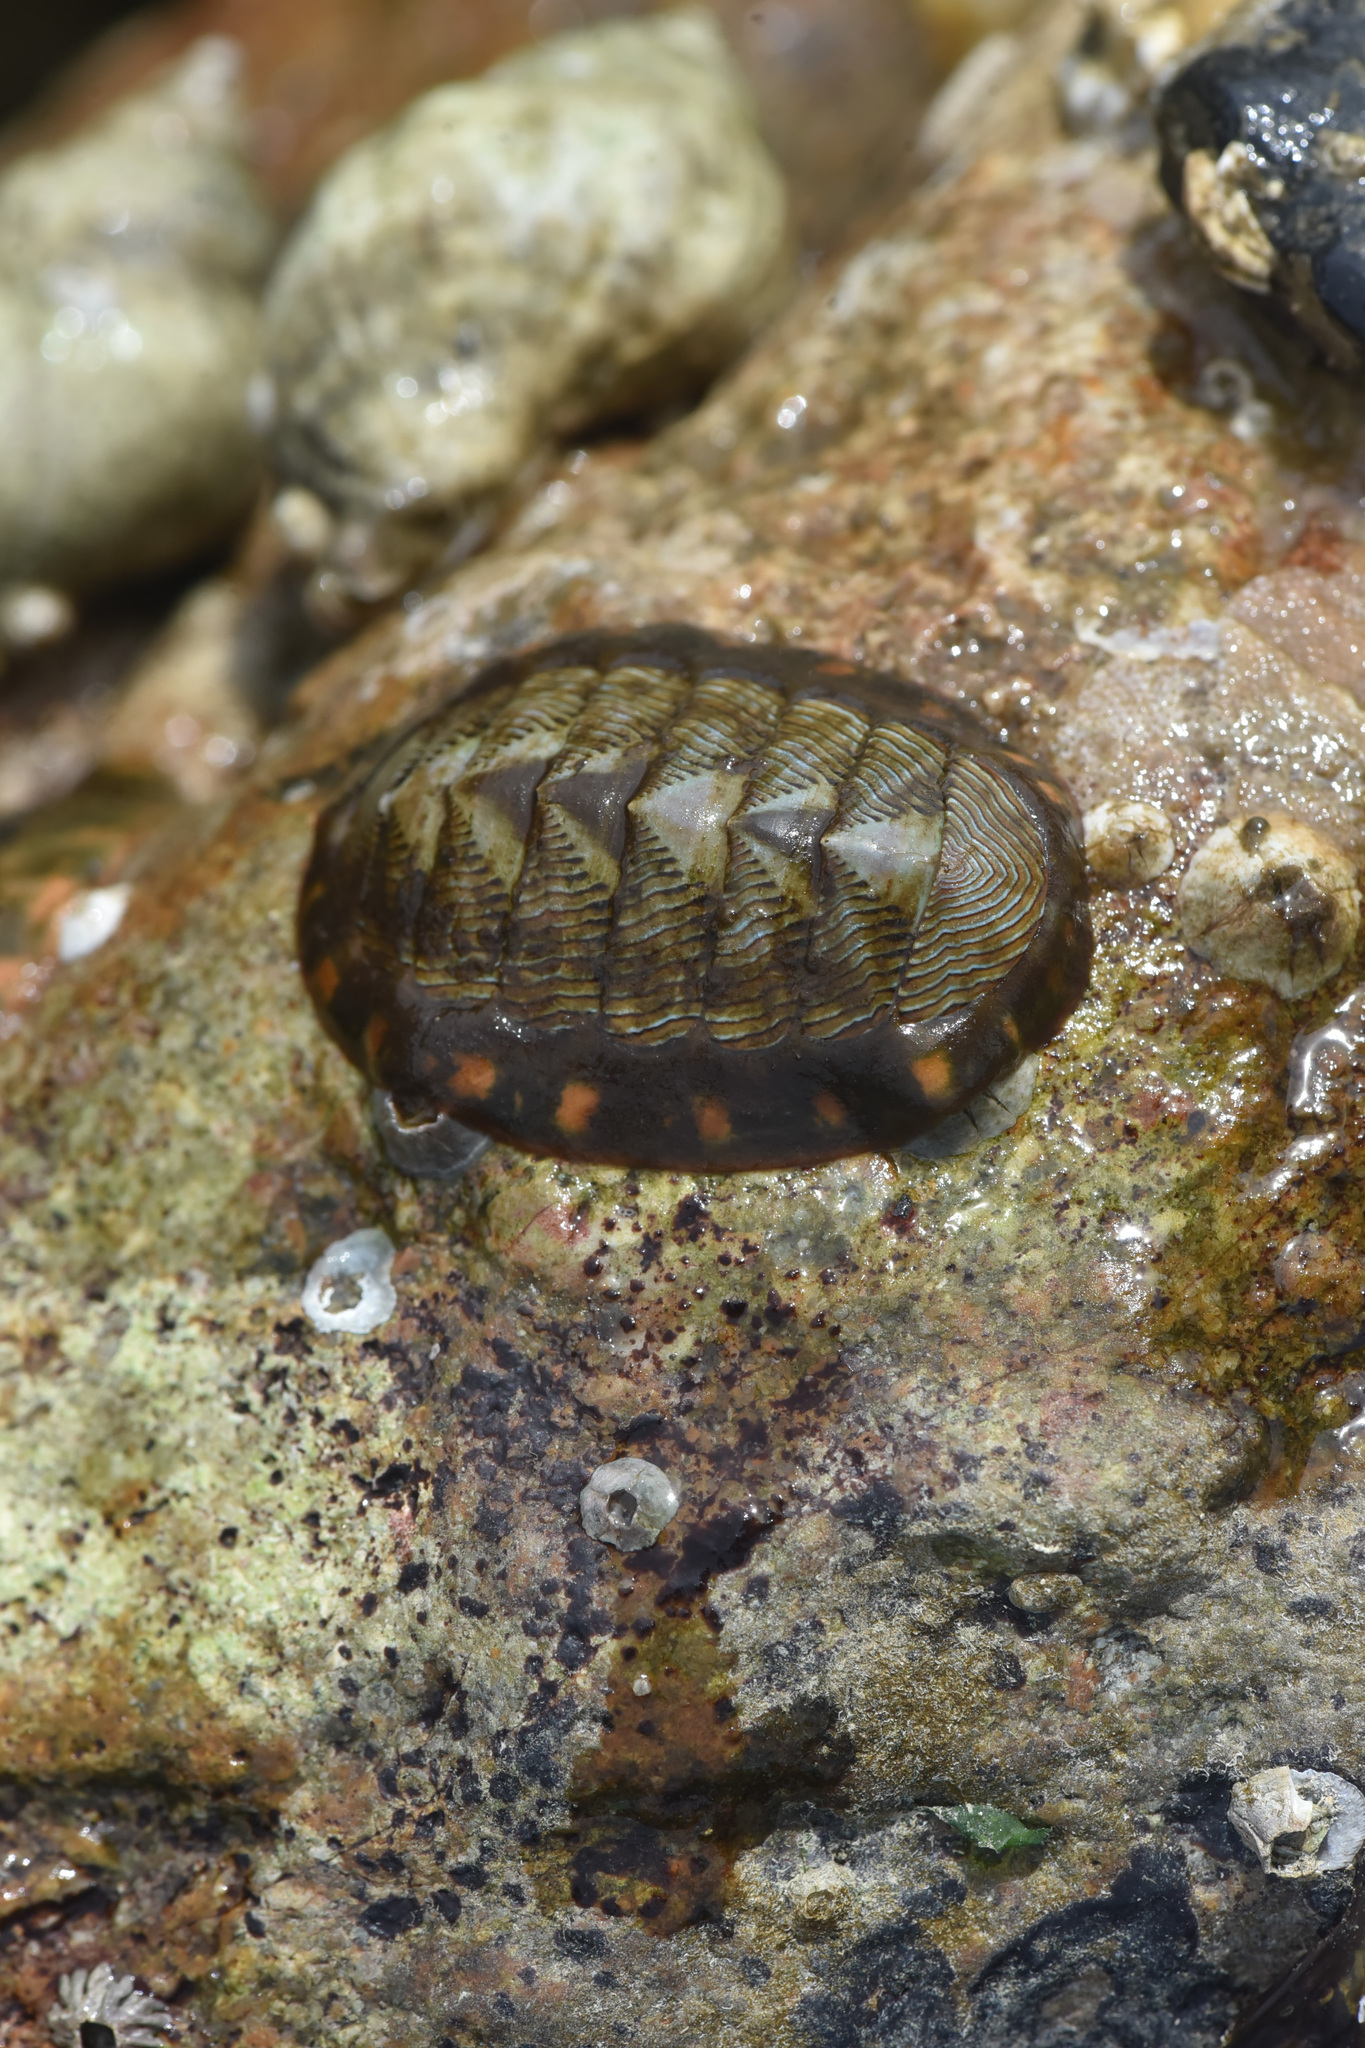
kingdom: Animalia
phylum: Mollusca
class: Polyplacophora
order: Chitonida
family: Tonicellidae
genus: Tonicella
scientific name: Tonicella lineata
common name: Lined chiton
